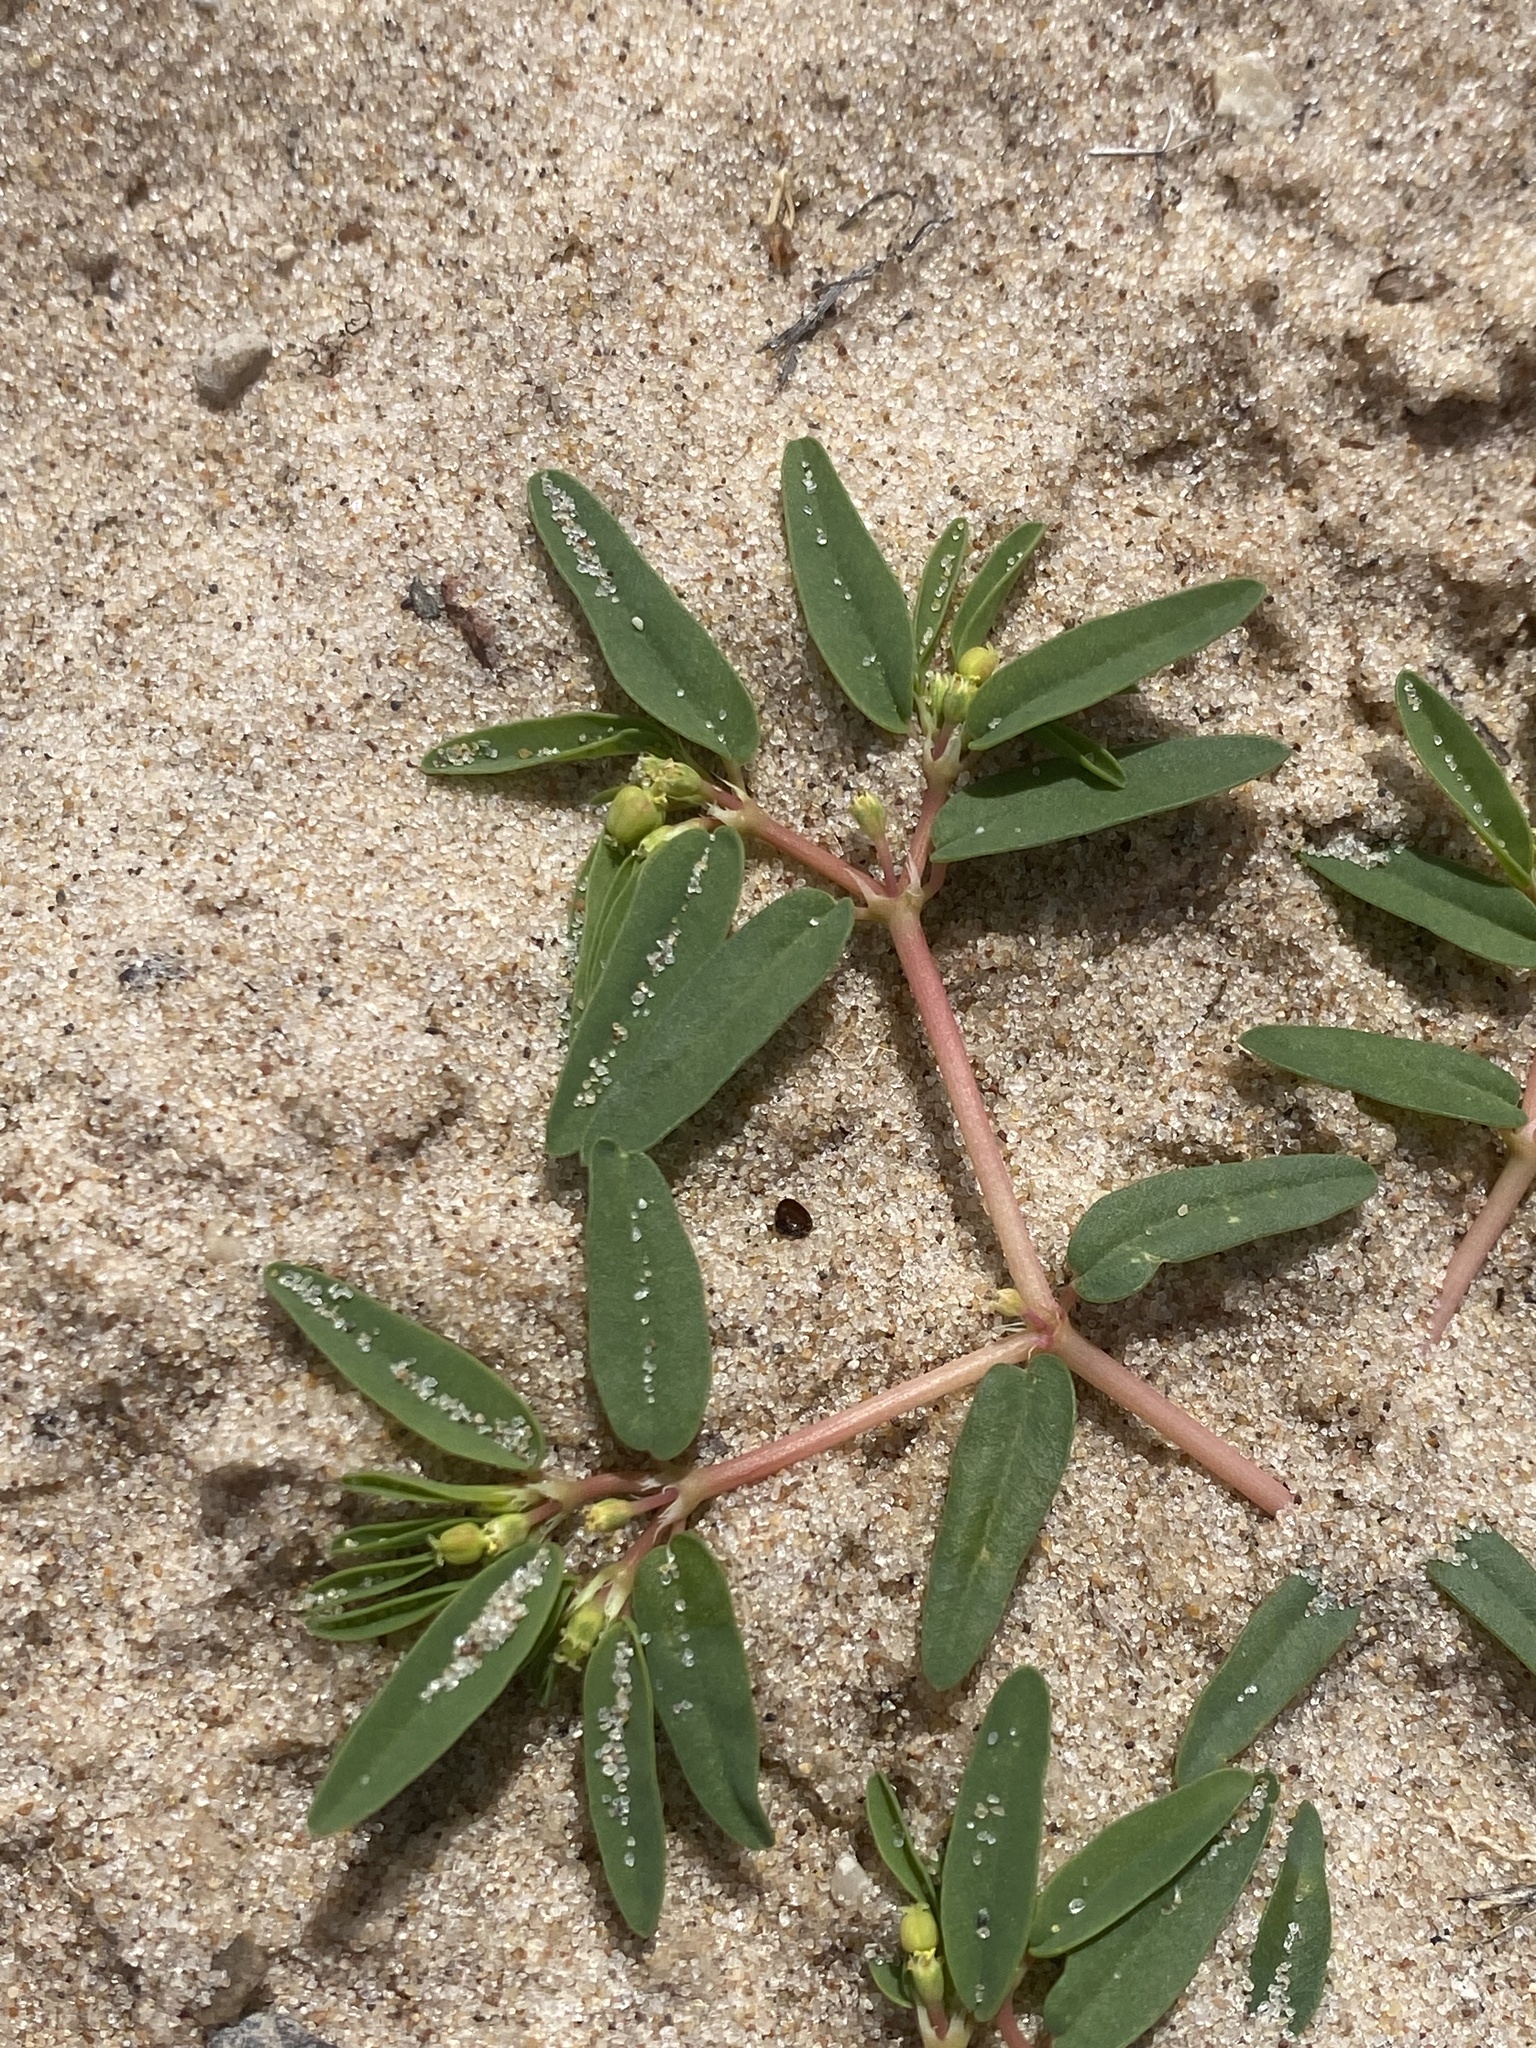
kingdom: Plantae
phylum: Tracheophyta
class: Magnoliopsida
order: Malpighiales
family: Euphorbiaceae
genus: Euphorbia
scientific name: Euphorbia polygonifolia
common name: Knotweed spurge
